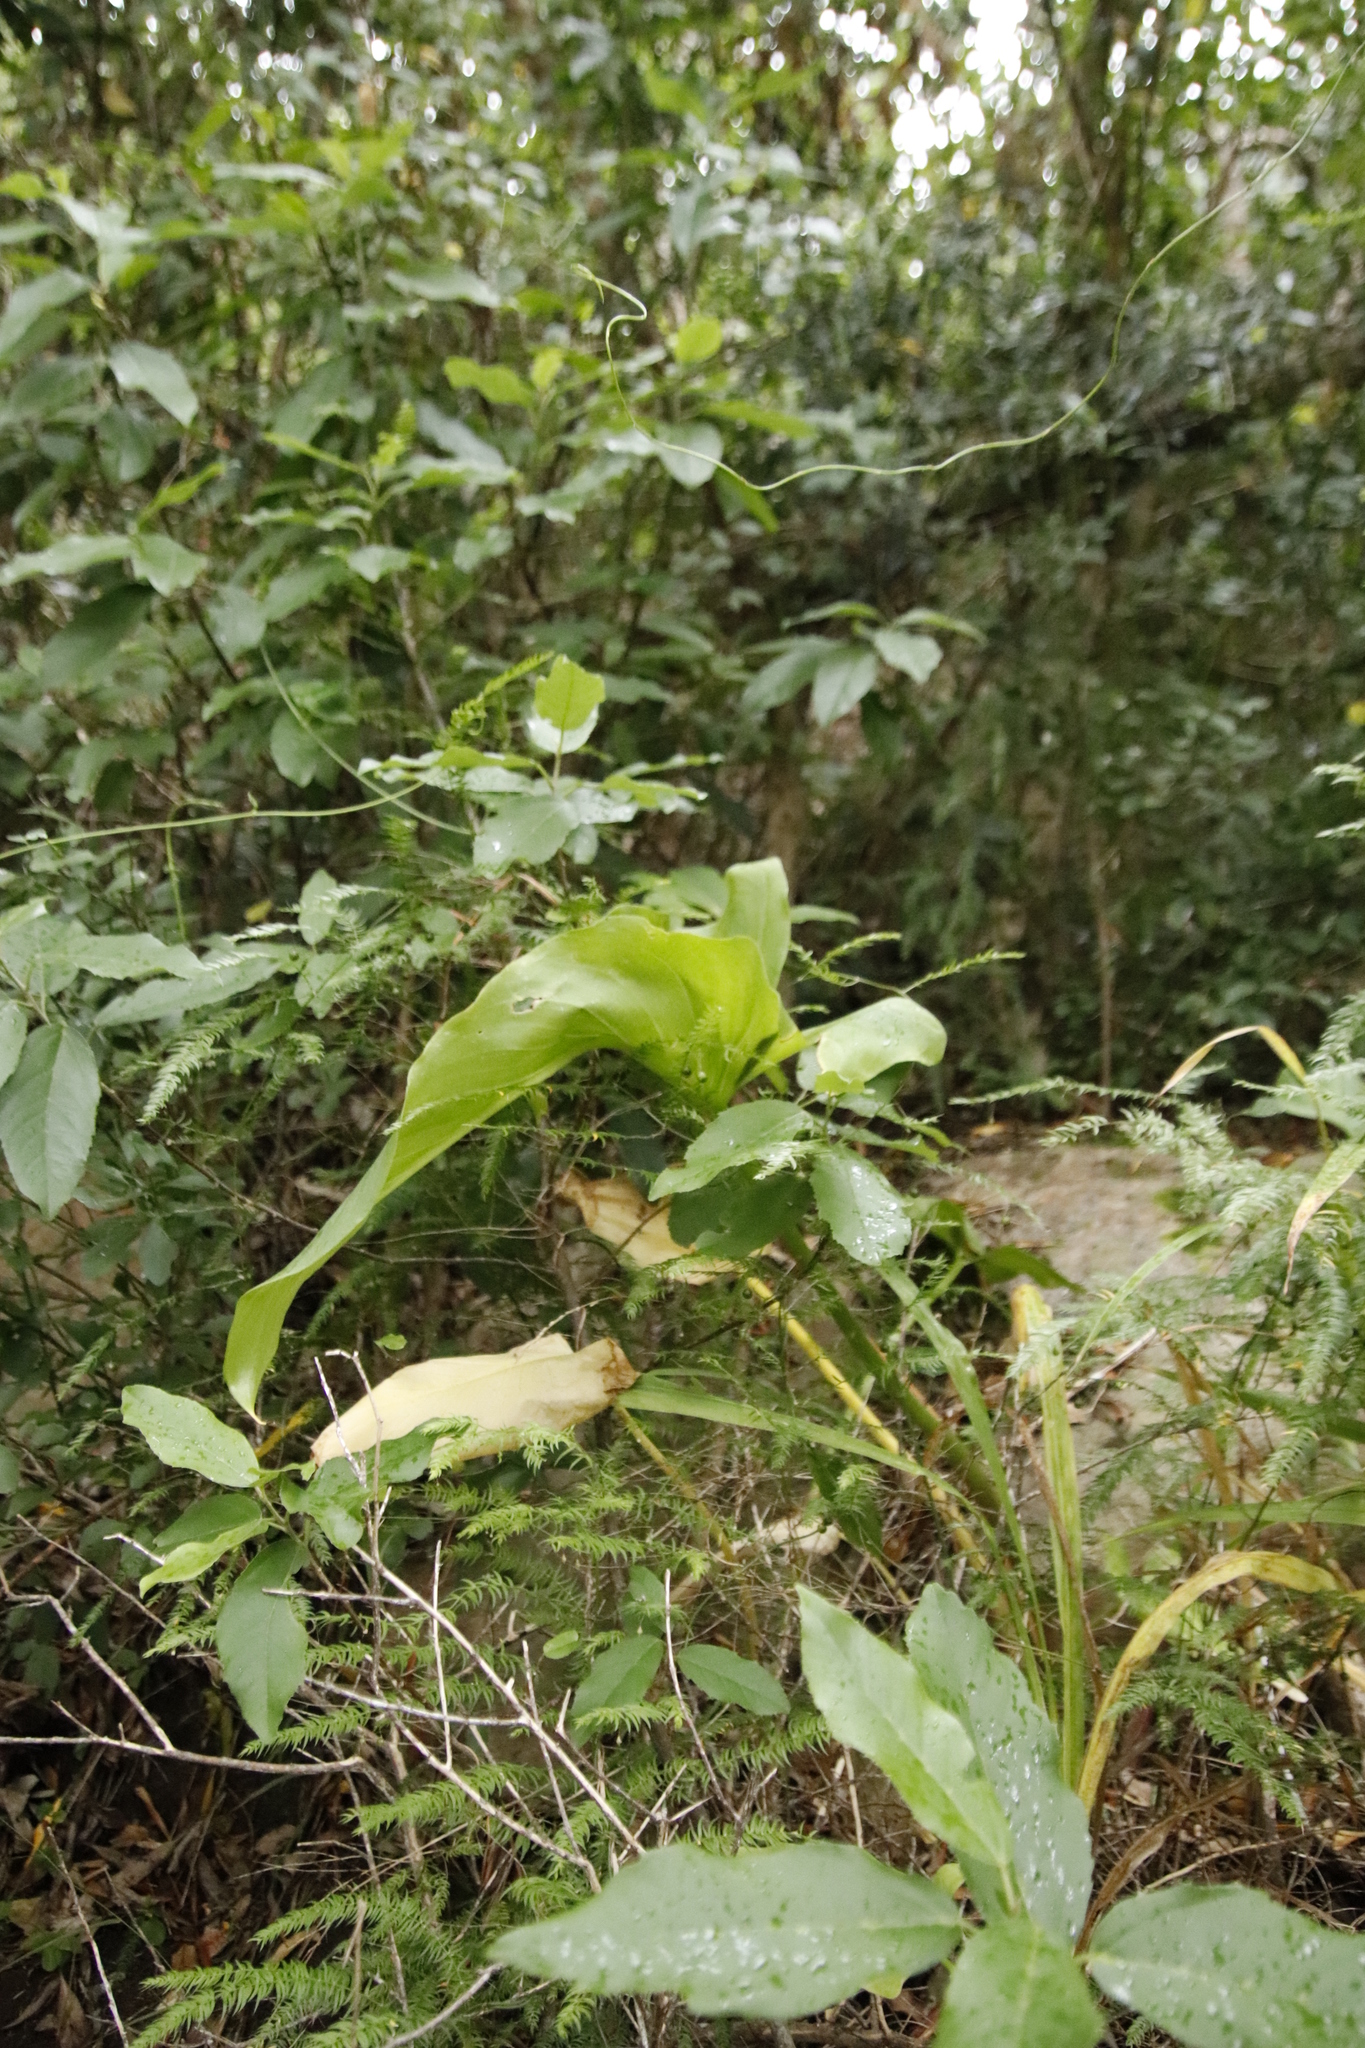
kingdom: Plantae
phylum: Tracheophyta
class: Liliopsida
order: Alismatales
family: Araceae
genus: Zantedeschia
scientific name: Zantedeschia aethiopica
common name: Altar-lily
